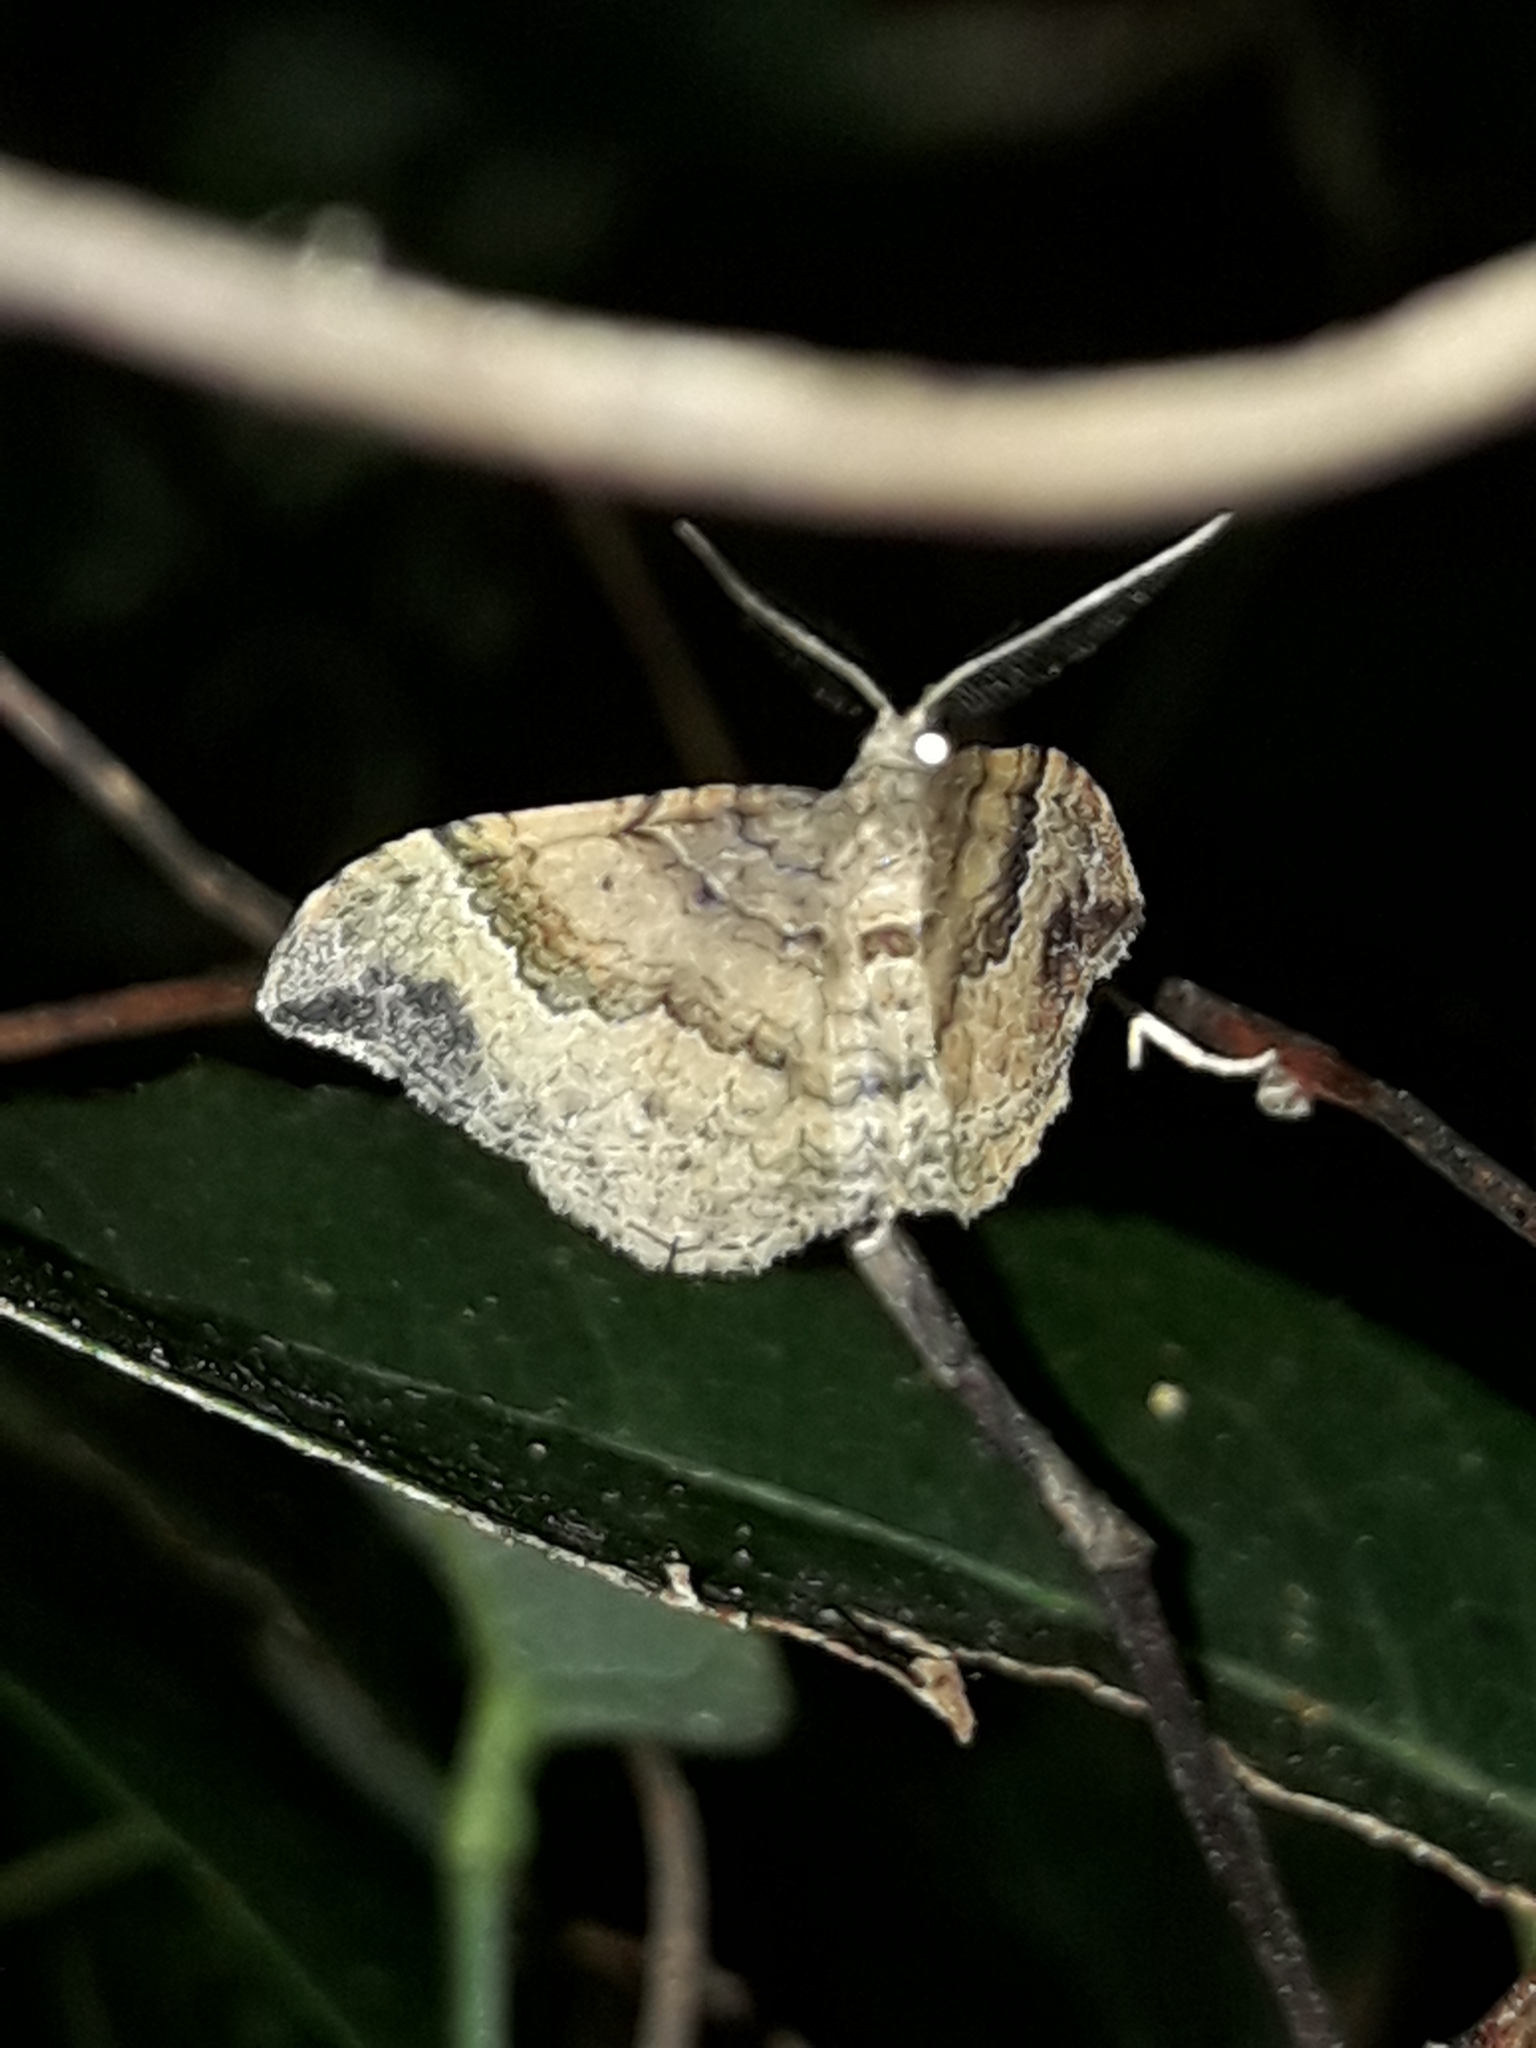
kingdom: Animalia
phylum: Arthropoda
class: Insecta
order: Lepidoptera
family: Geometridae
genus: Homodotis
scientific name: Homodotis megaspilata
